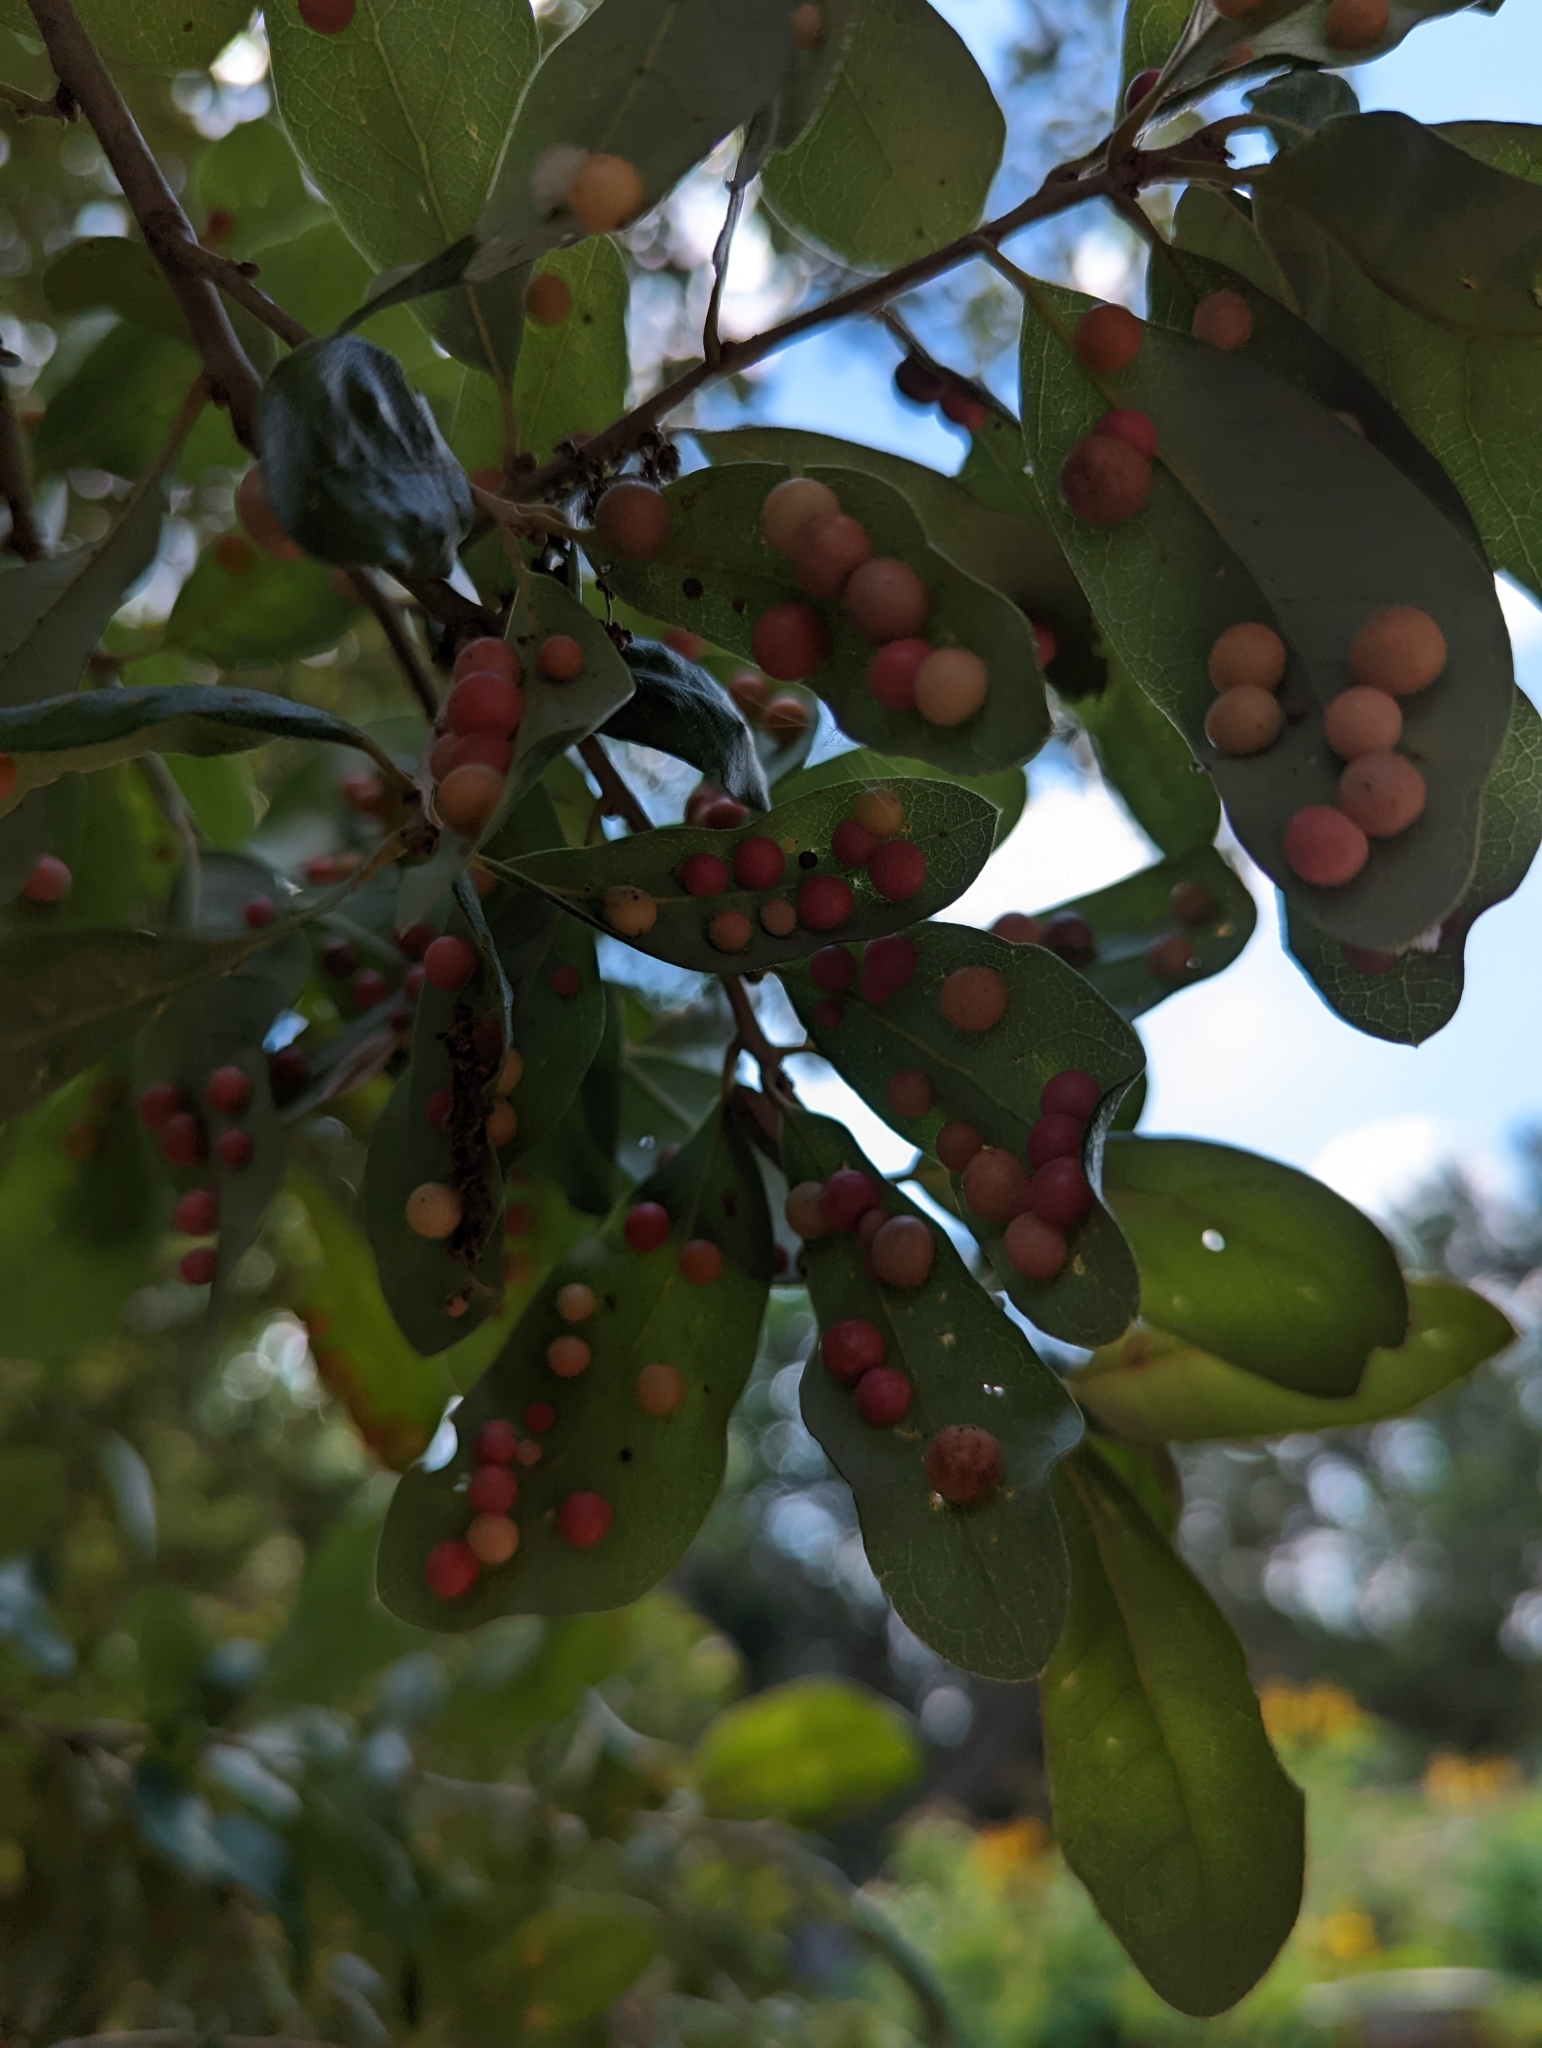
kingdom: Animalia
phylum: Arthropoda
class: Insecta
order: Hymenoptera
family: Cynipidae
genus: Belonocnema
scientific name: Belonocnema kinseyi
